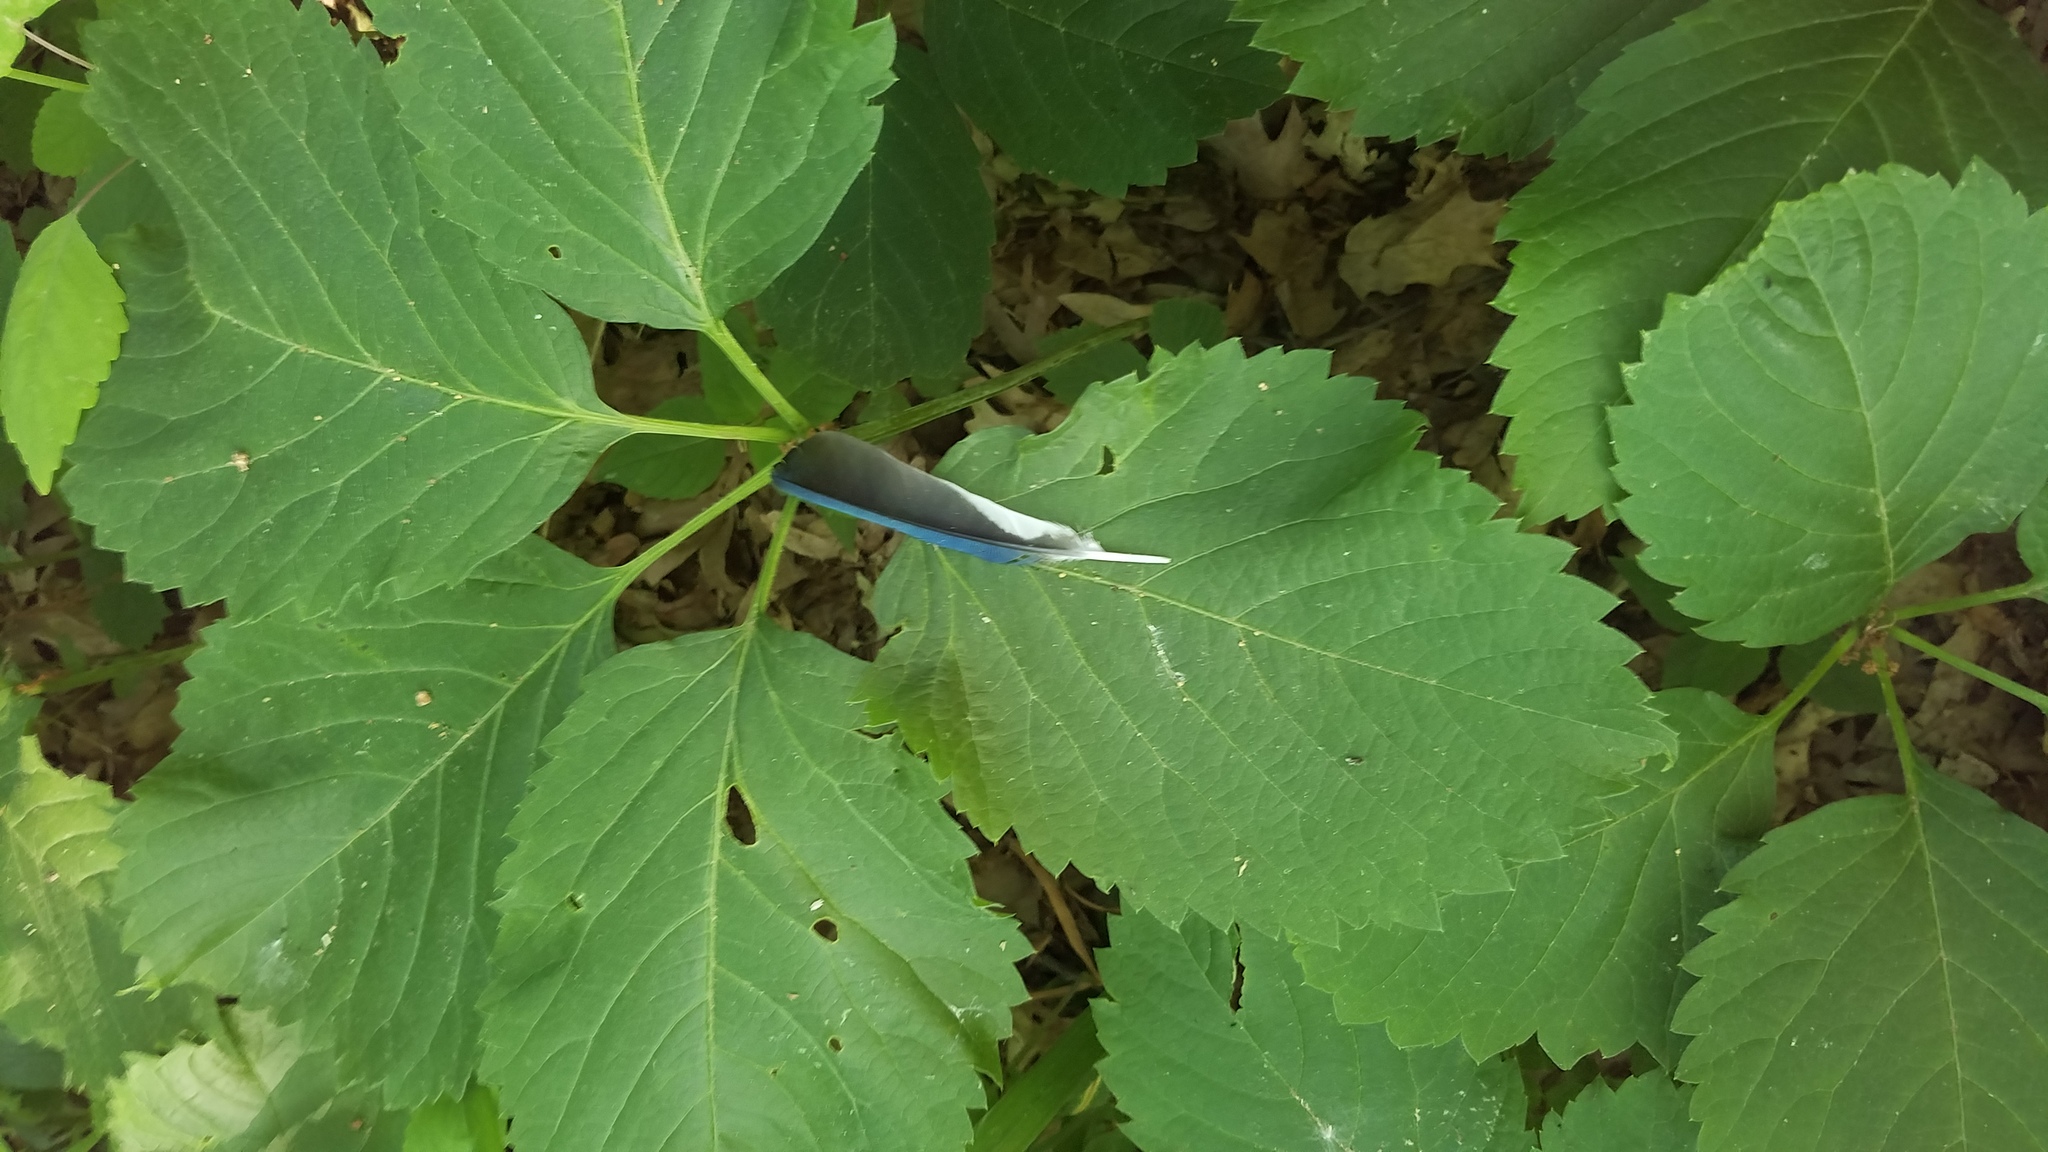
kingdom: Animalia
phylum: Chordata
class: Aves
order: Passeriformes
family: Corvidae
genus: Cyanocitta
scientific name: Cyanocitta cristata
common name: Blue jay
